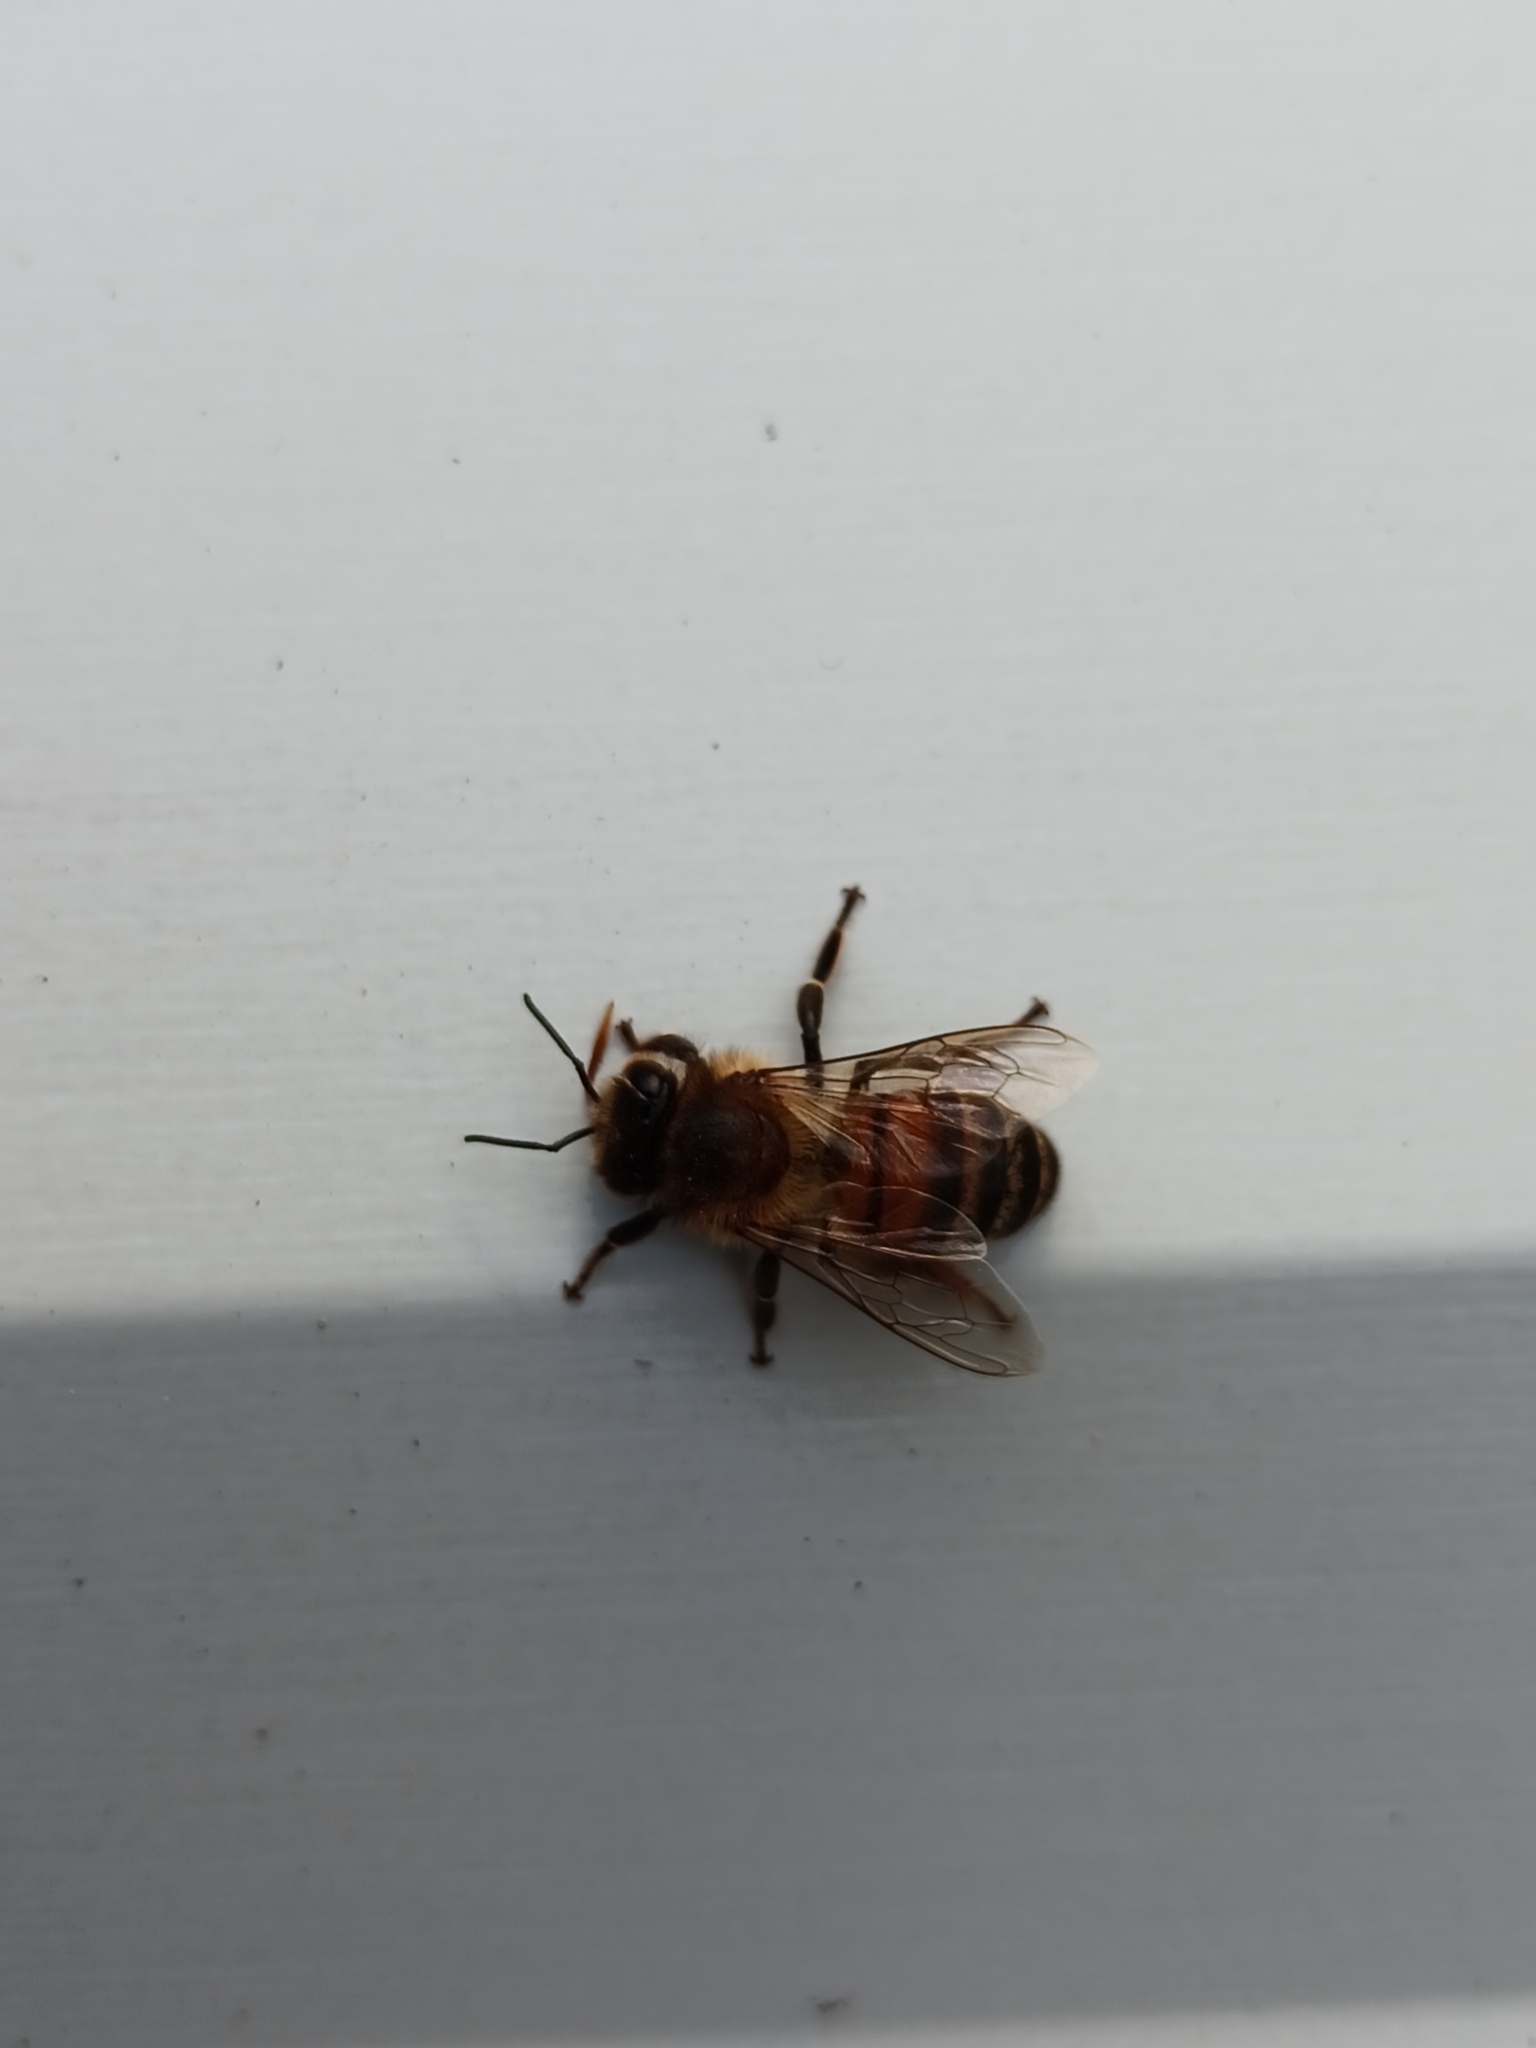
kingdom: Animalia
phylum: Arthropoda
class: Insecta
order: Hymenoptera
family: Apidae
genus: Apis
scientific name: Apis mellifera
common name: Honey bee
